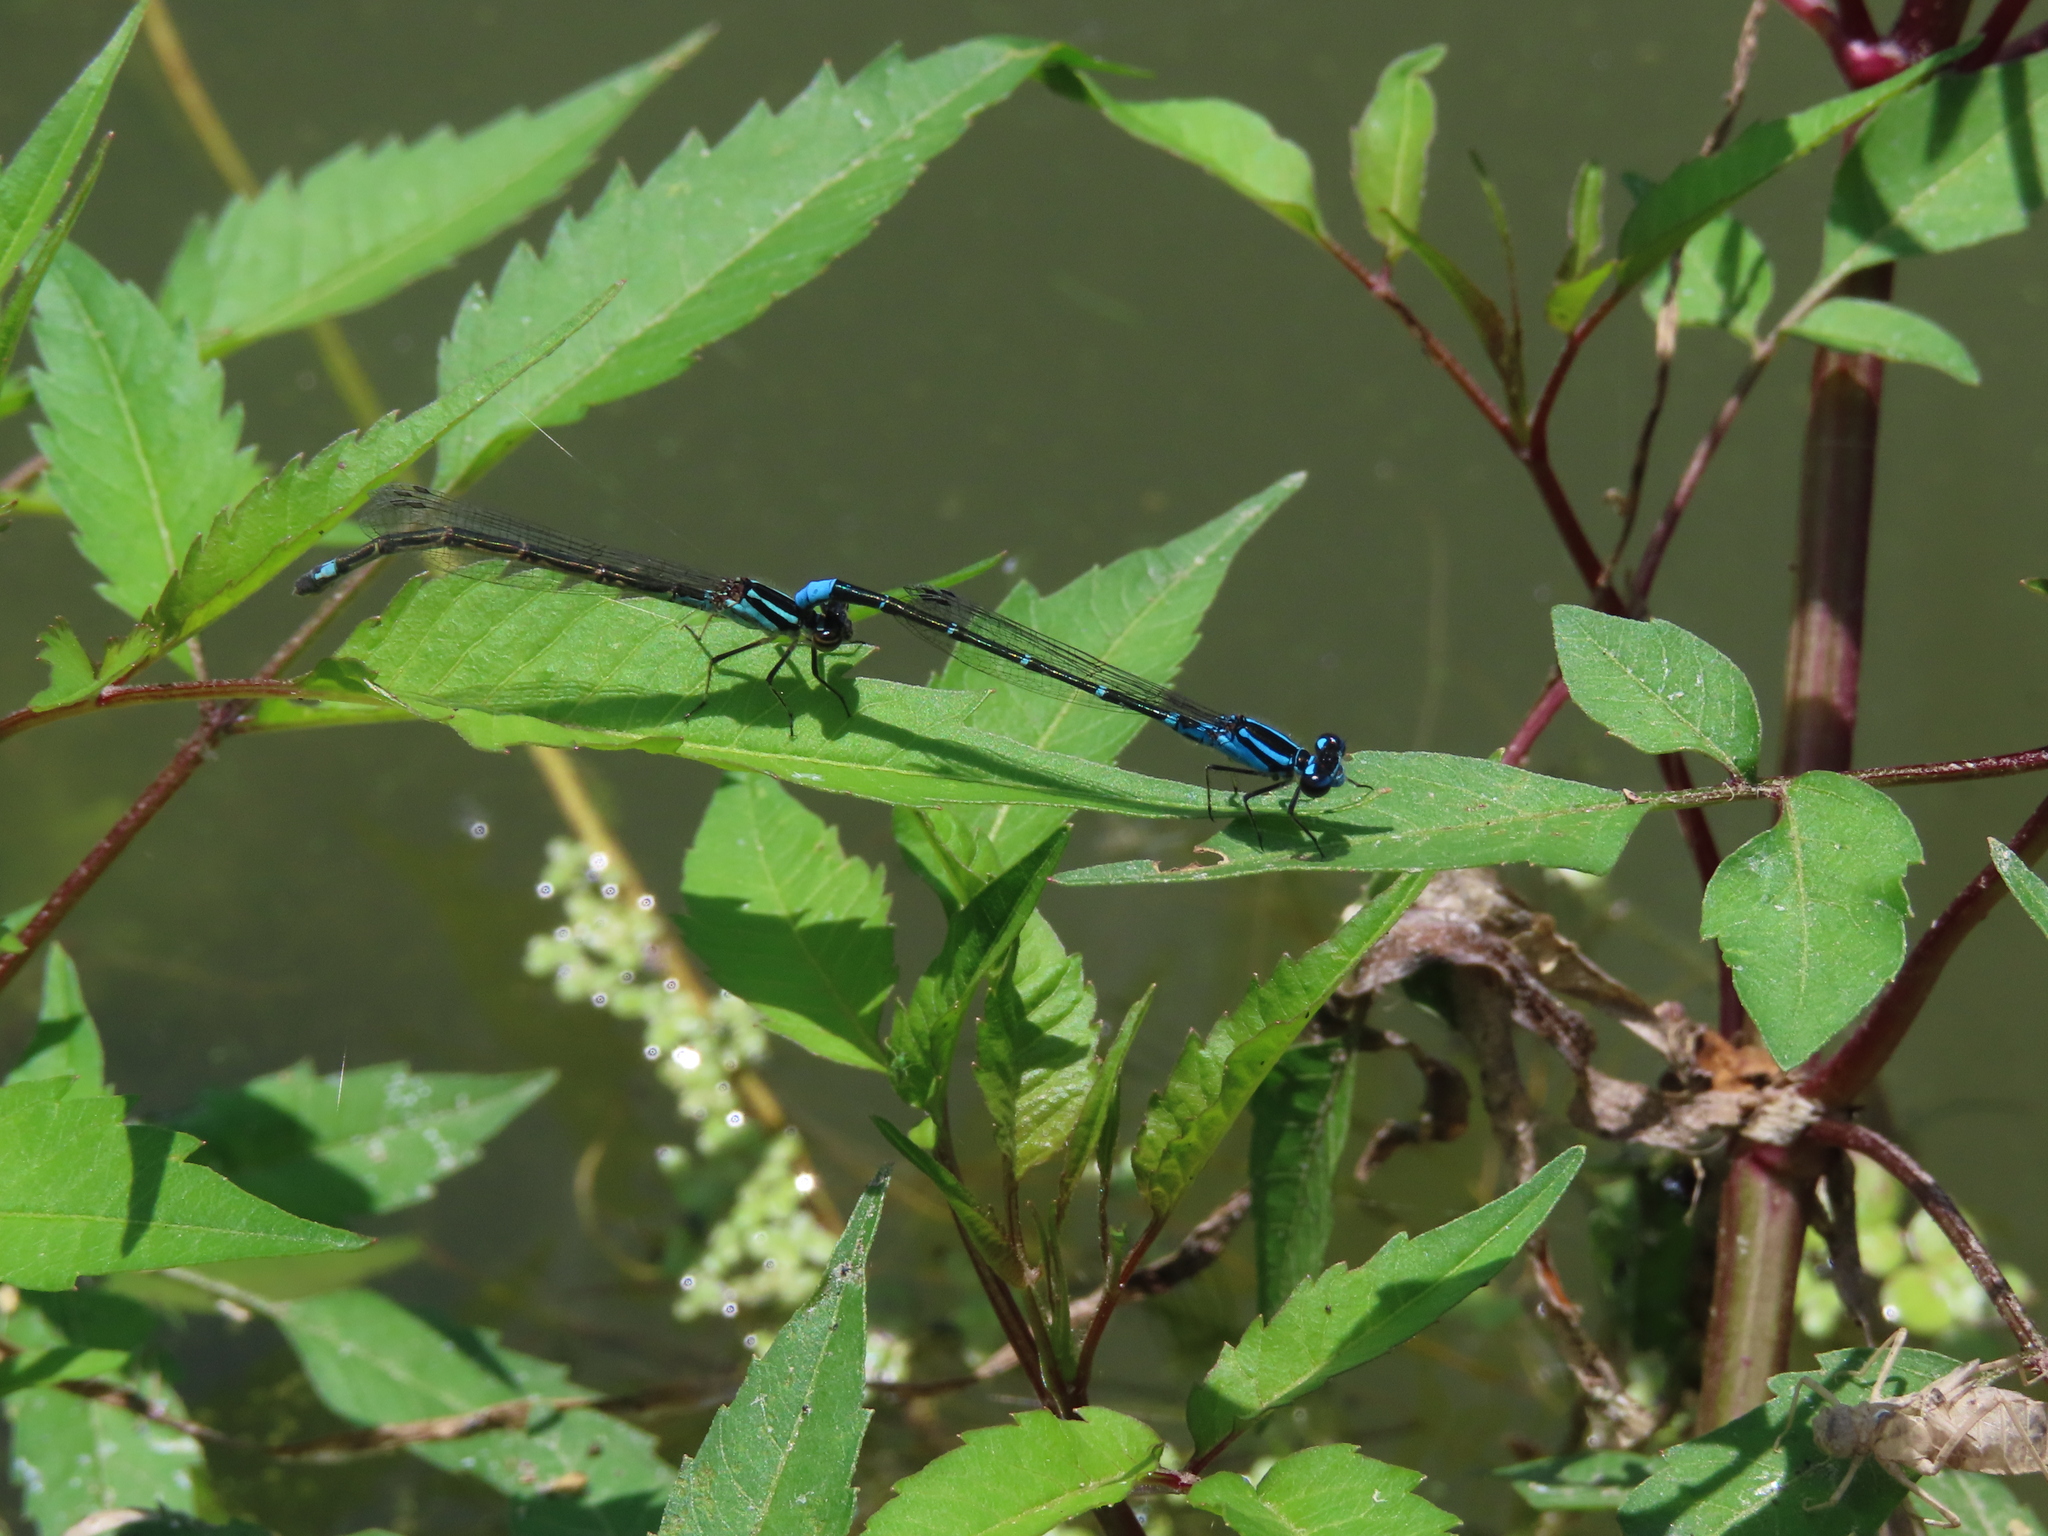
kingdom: Animalia
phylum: Arthropoda
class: Insecta
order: Odonata
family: Coenagrionidae
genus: Enallagma
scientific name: Enallagma geminatum
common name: Skimming bluet
